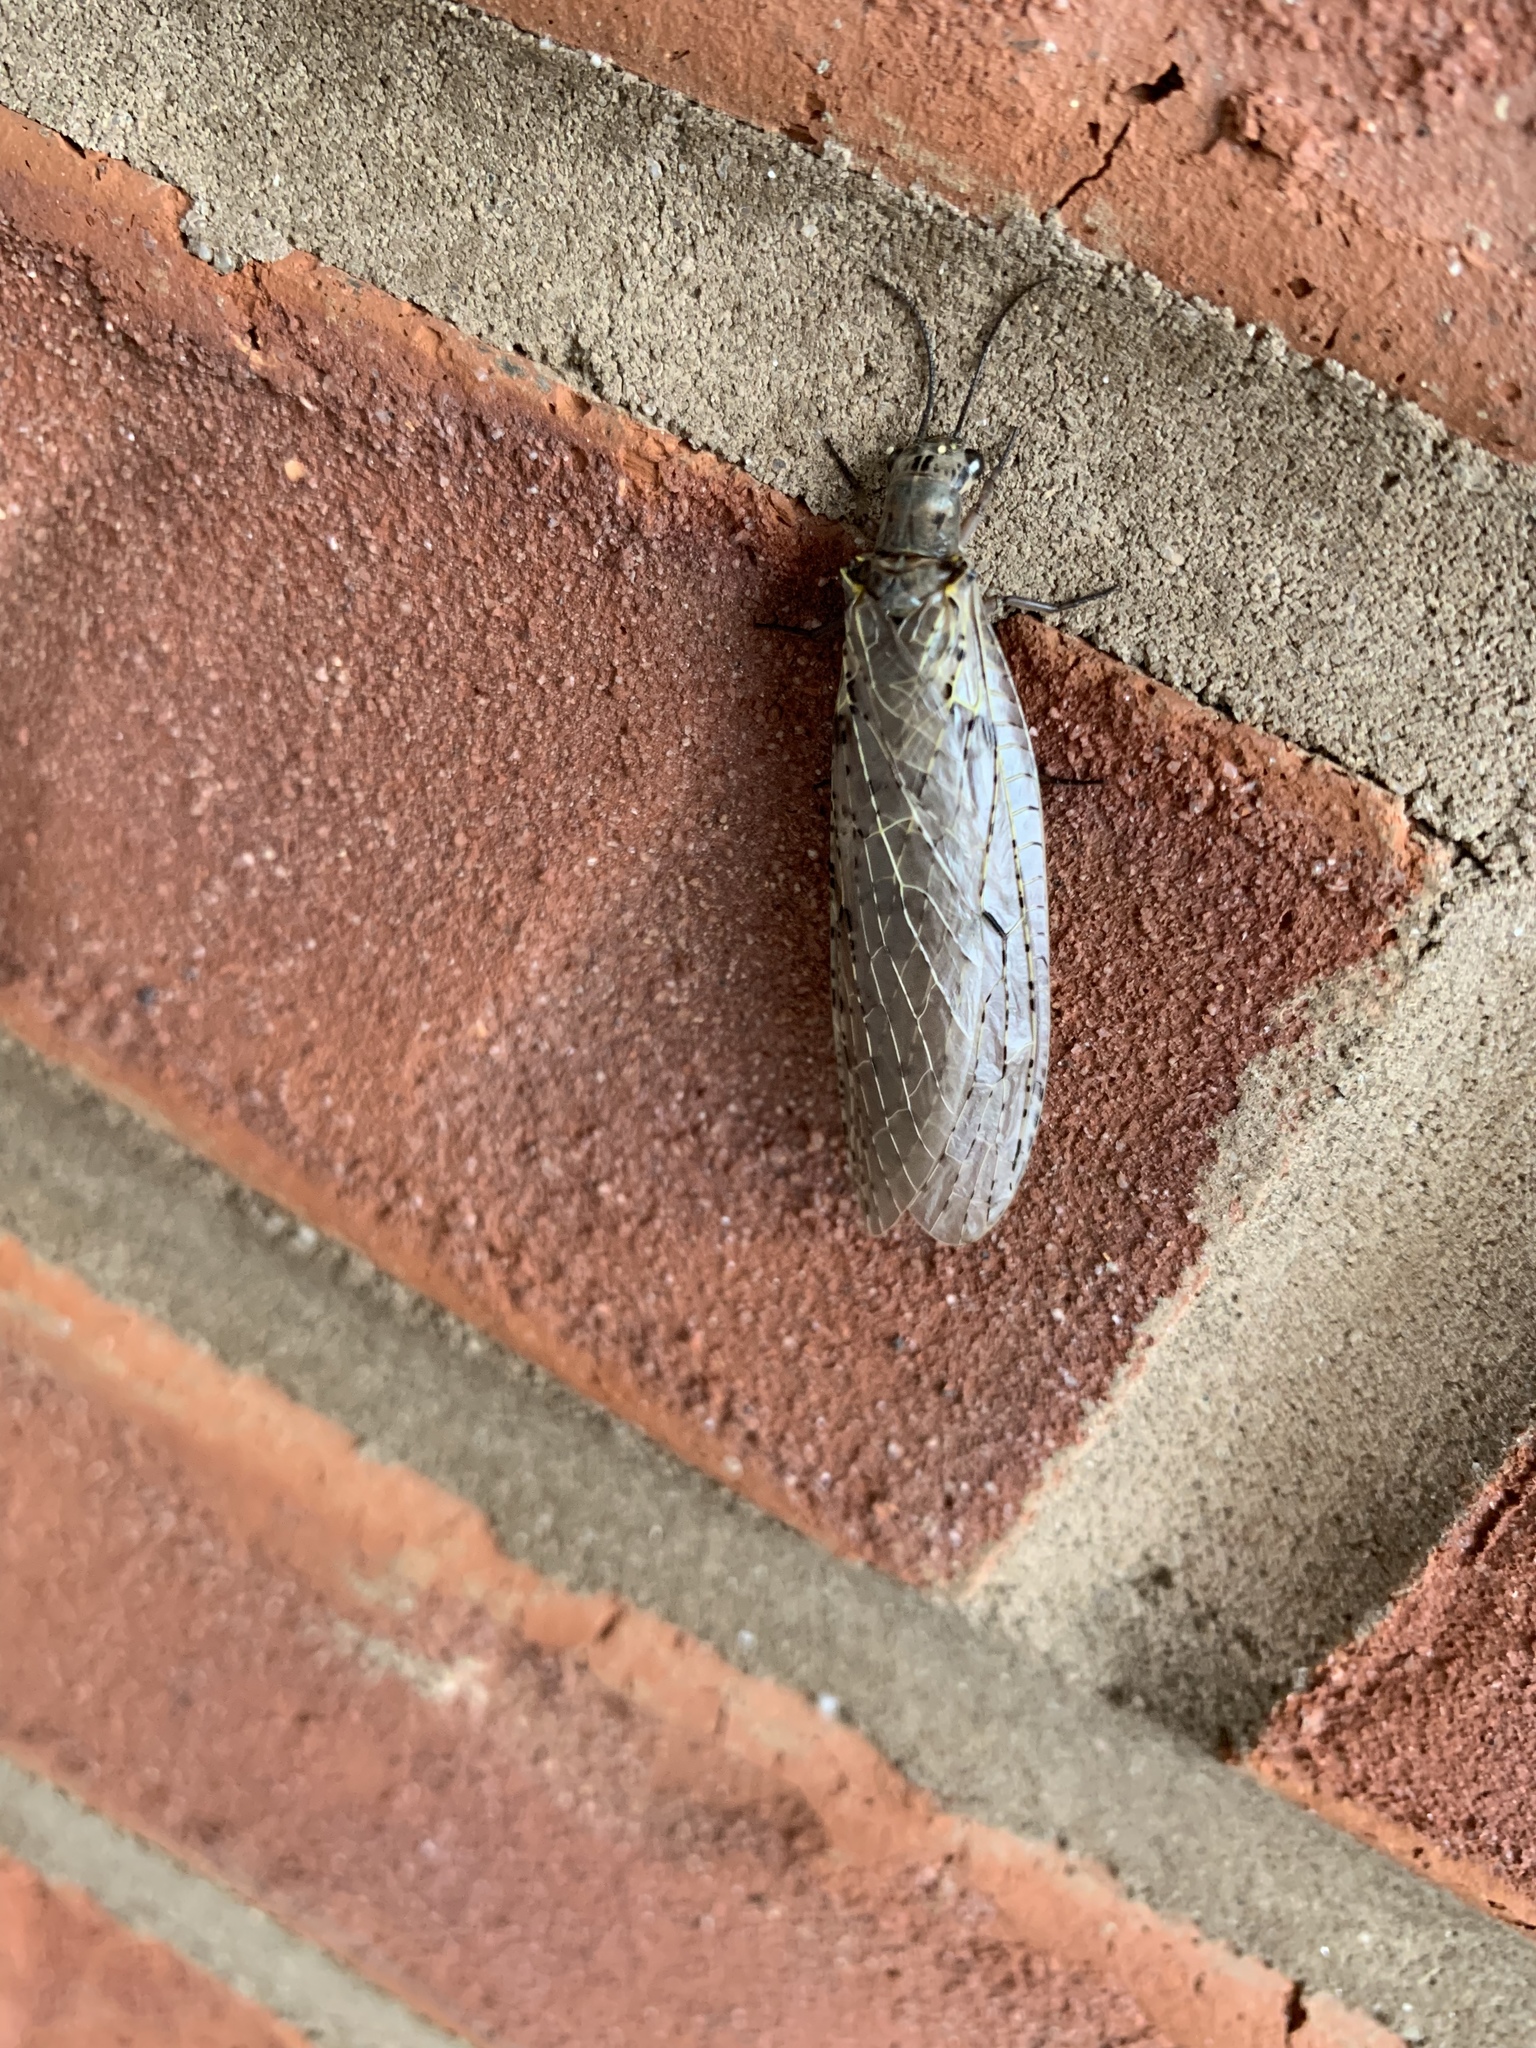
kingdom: Animalia
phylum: Arthropoda
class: Insecta
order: Megaloptera
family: Corydalidae
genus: Chauliodes
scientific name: Chauliodes rastricornis
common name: Spring fishfly
